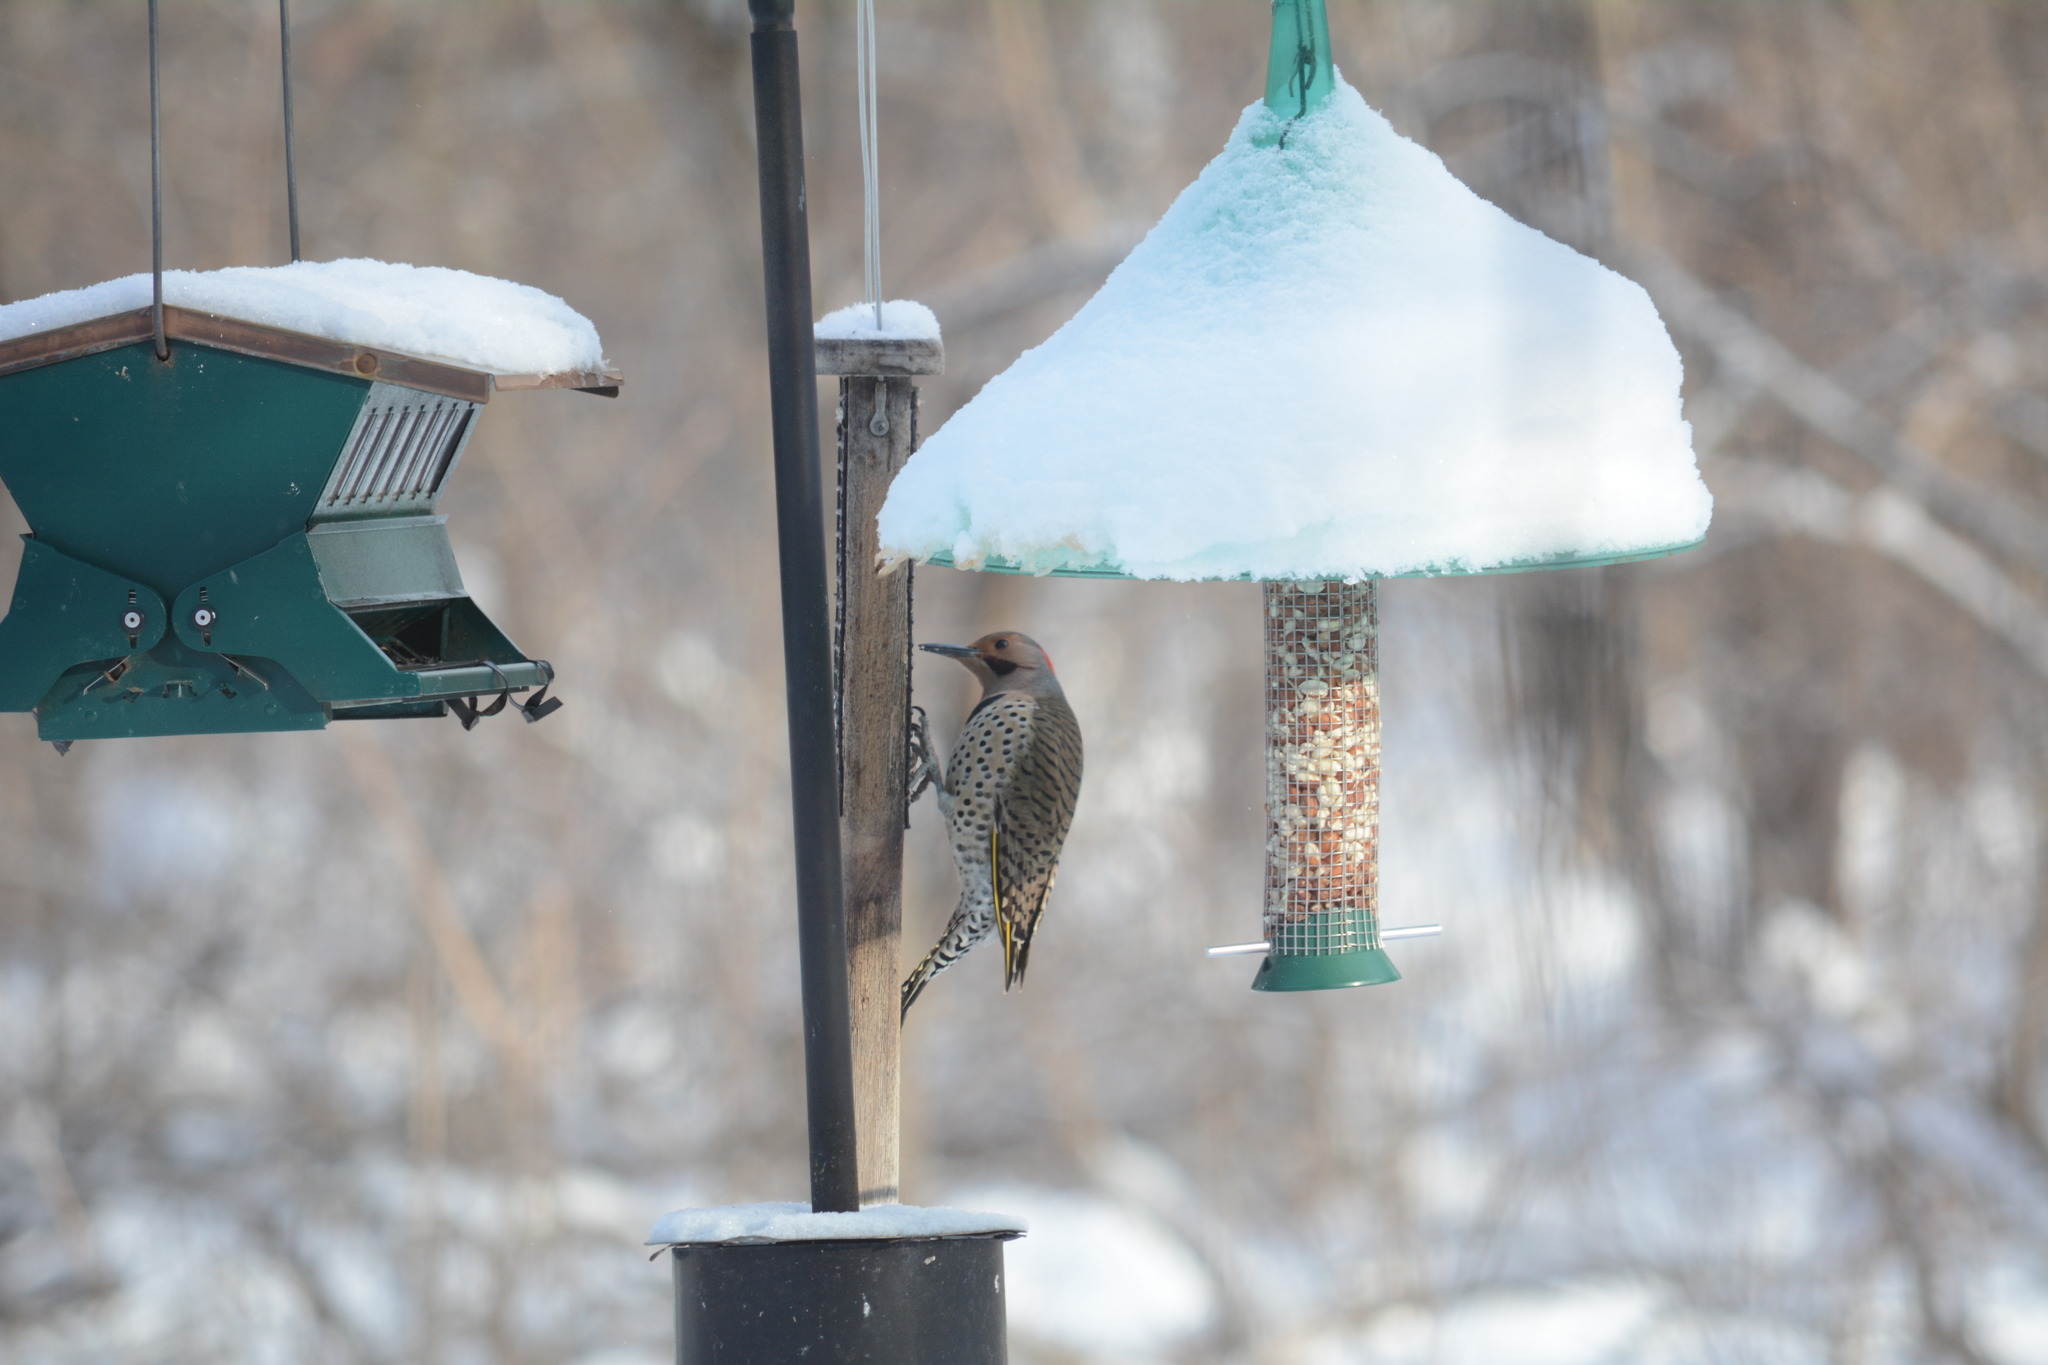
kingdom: Animalia
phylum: Chordata
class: Aves
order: Piciformes
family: Picidae
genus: Colaptes
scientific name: Colaptes auratus
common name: Northern flicker
